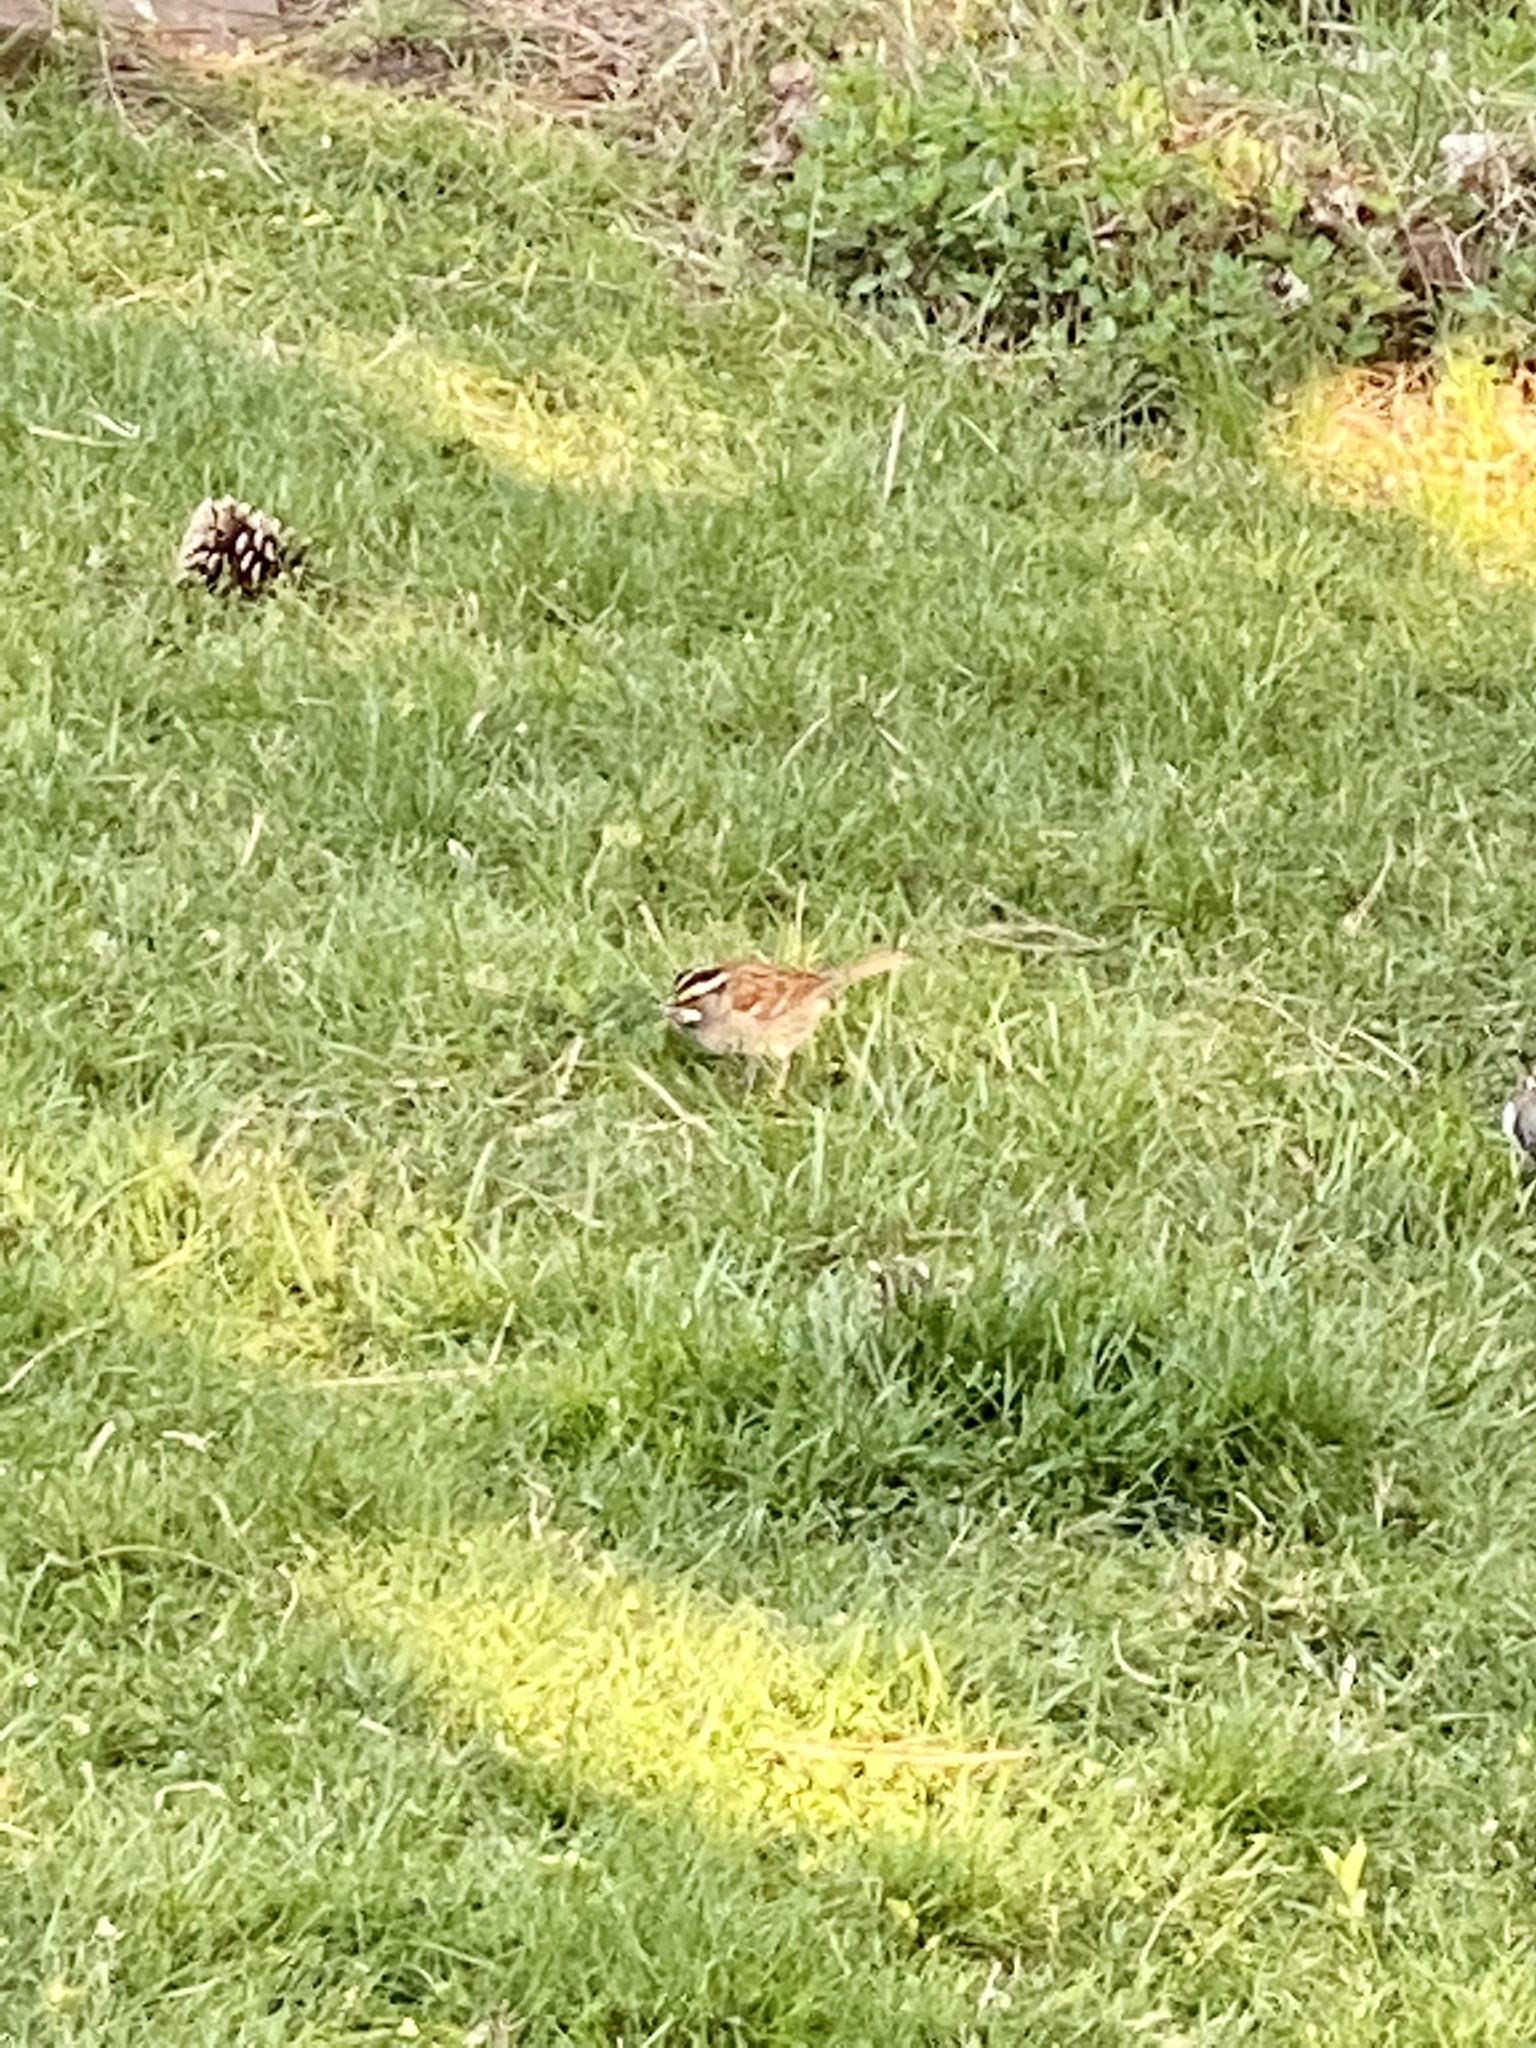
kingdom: Animalia
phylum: Chordata
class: Aves
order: Passeriformes
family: Passerellidae
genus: Zonotrichia
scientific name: Zonotrichia albicollis
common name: White-throated sparrow
